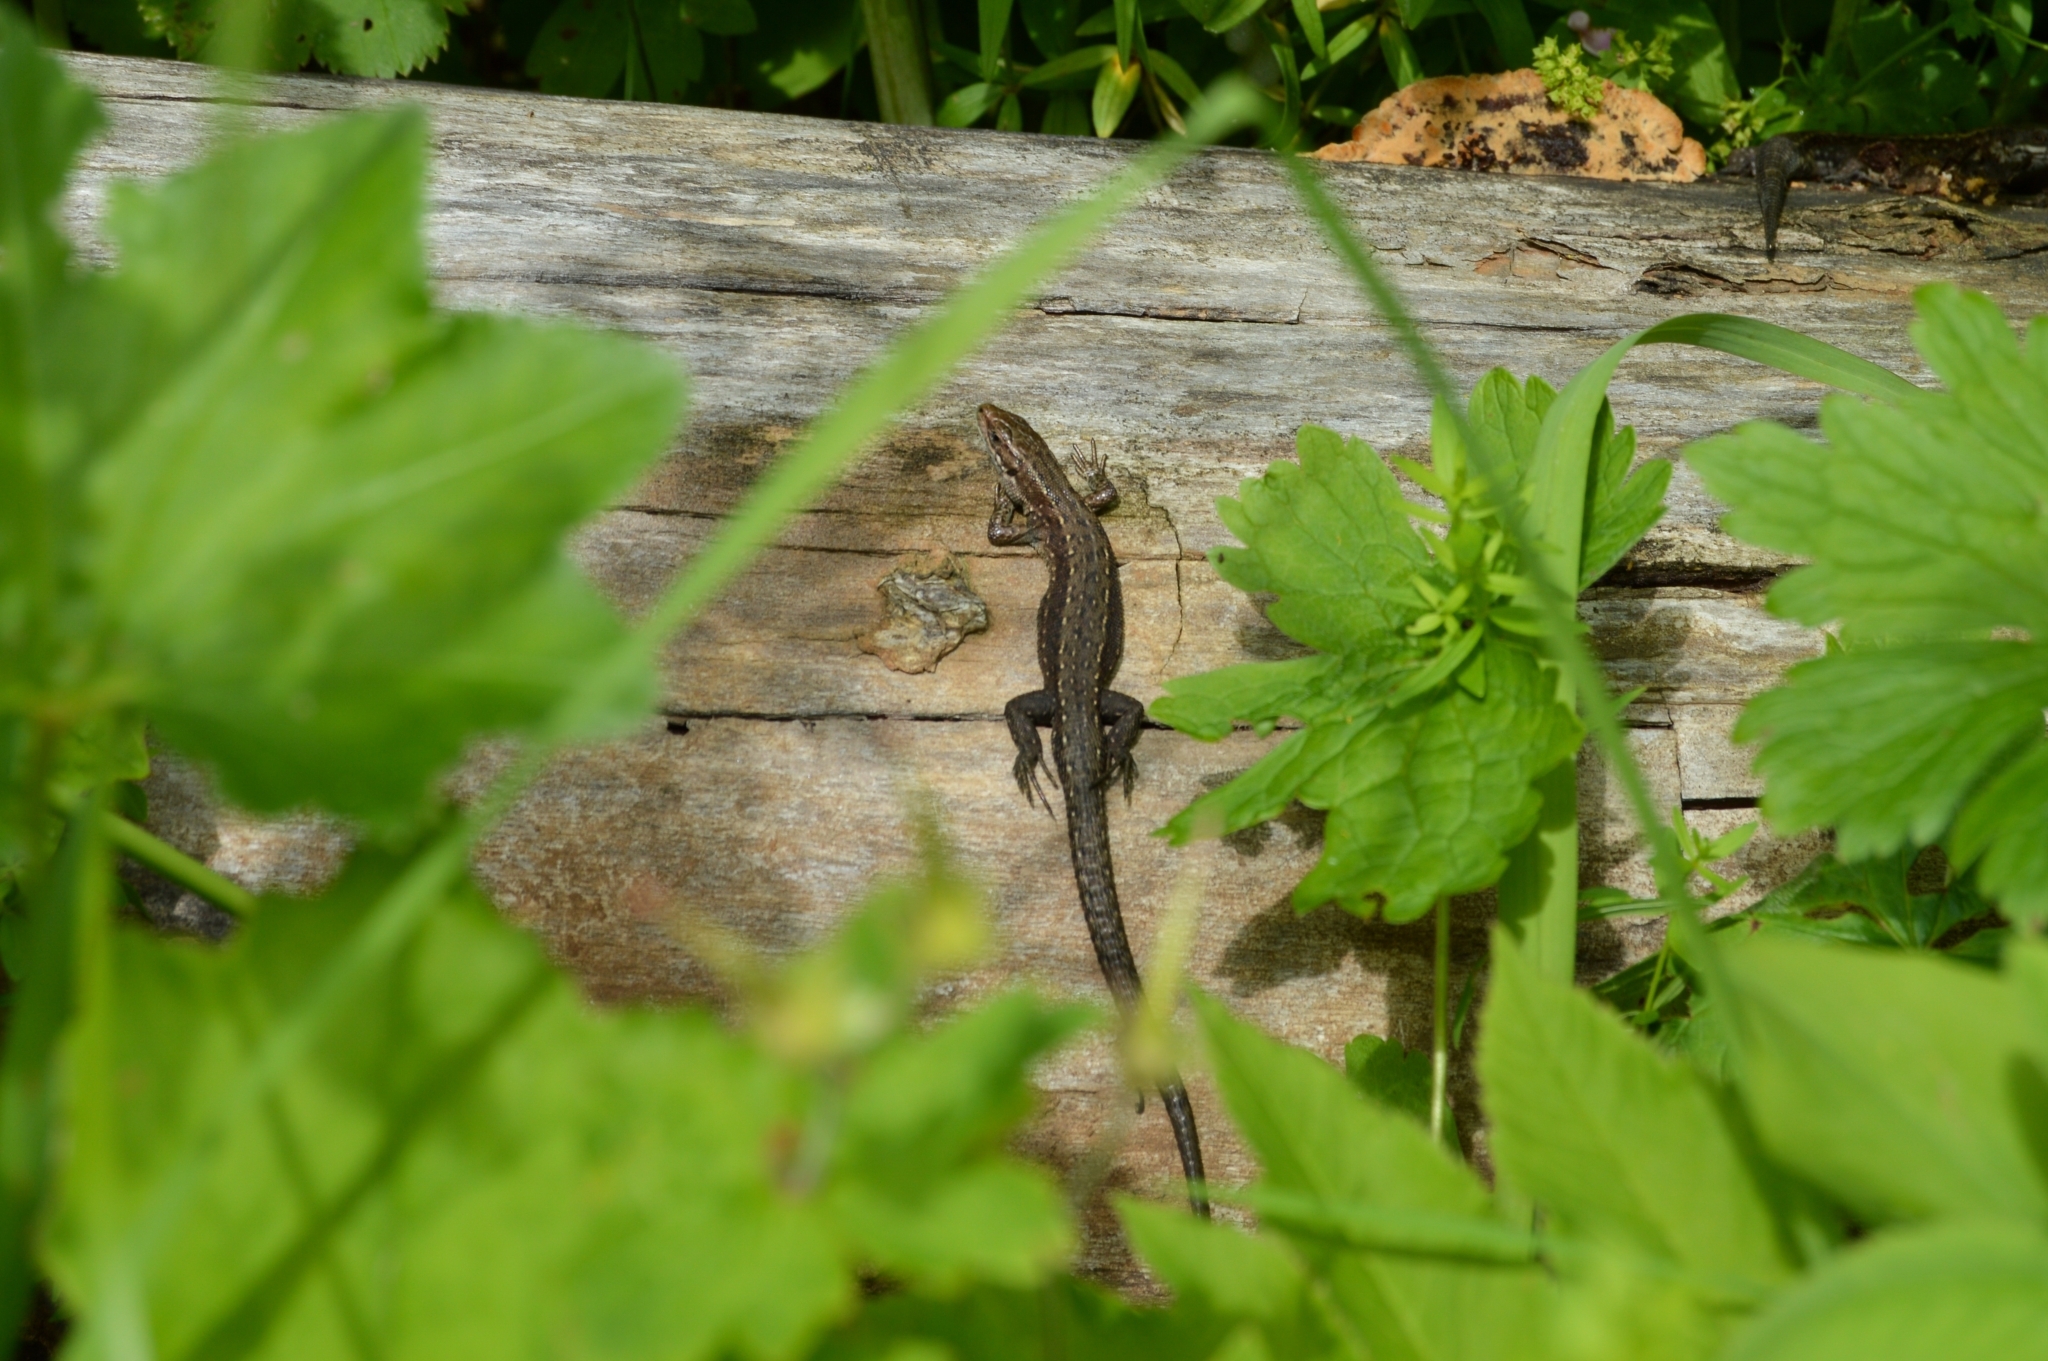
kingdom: Animalia
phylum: Chordata
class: Squamata
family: Lacertidae
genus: Zootoca
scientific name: Zootoca vivipara
